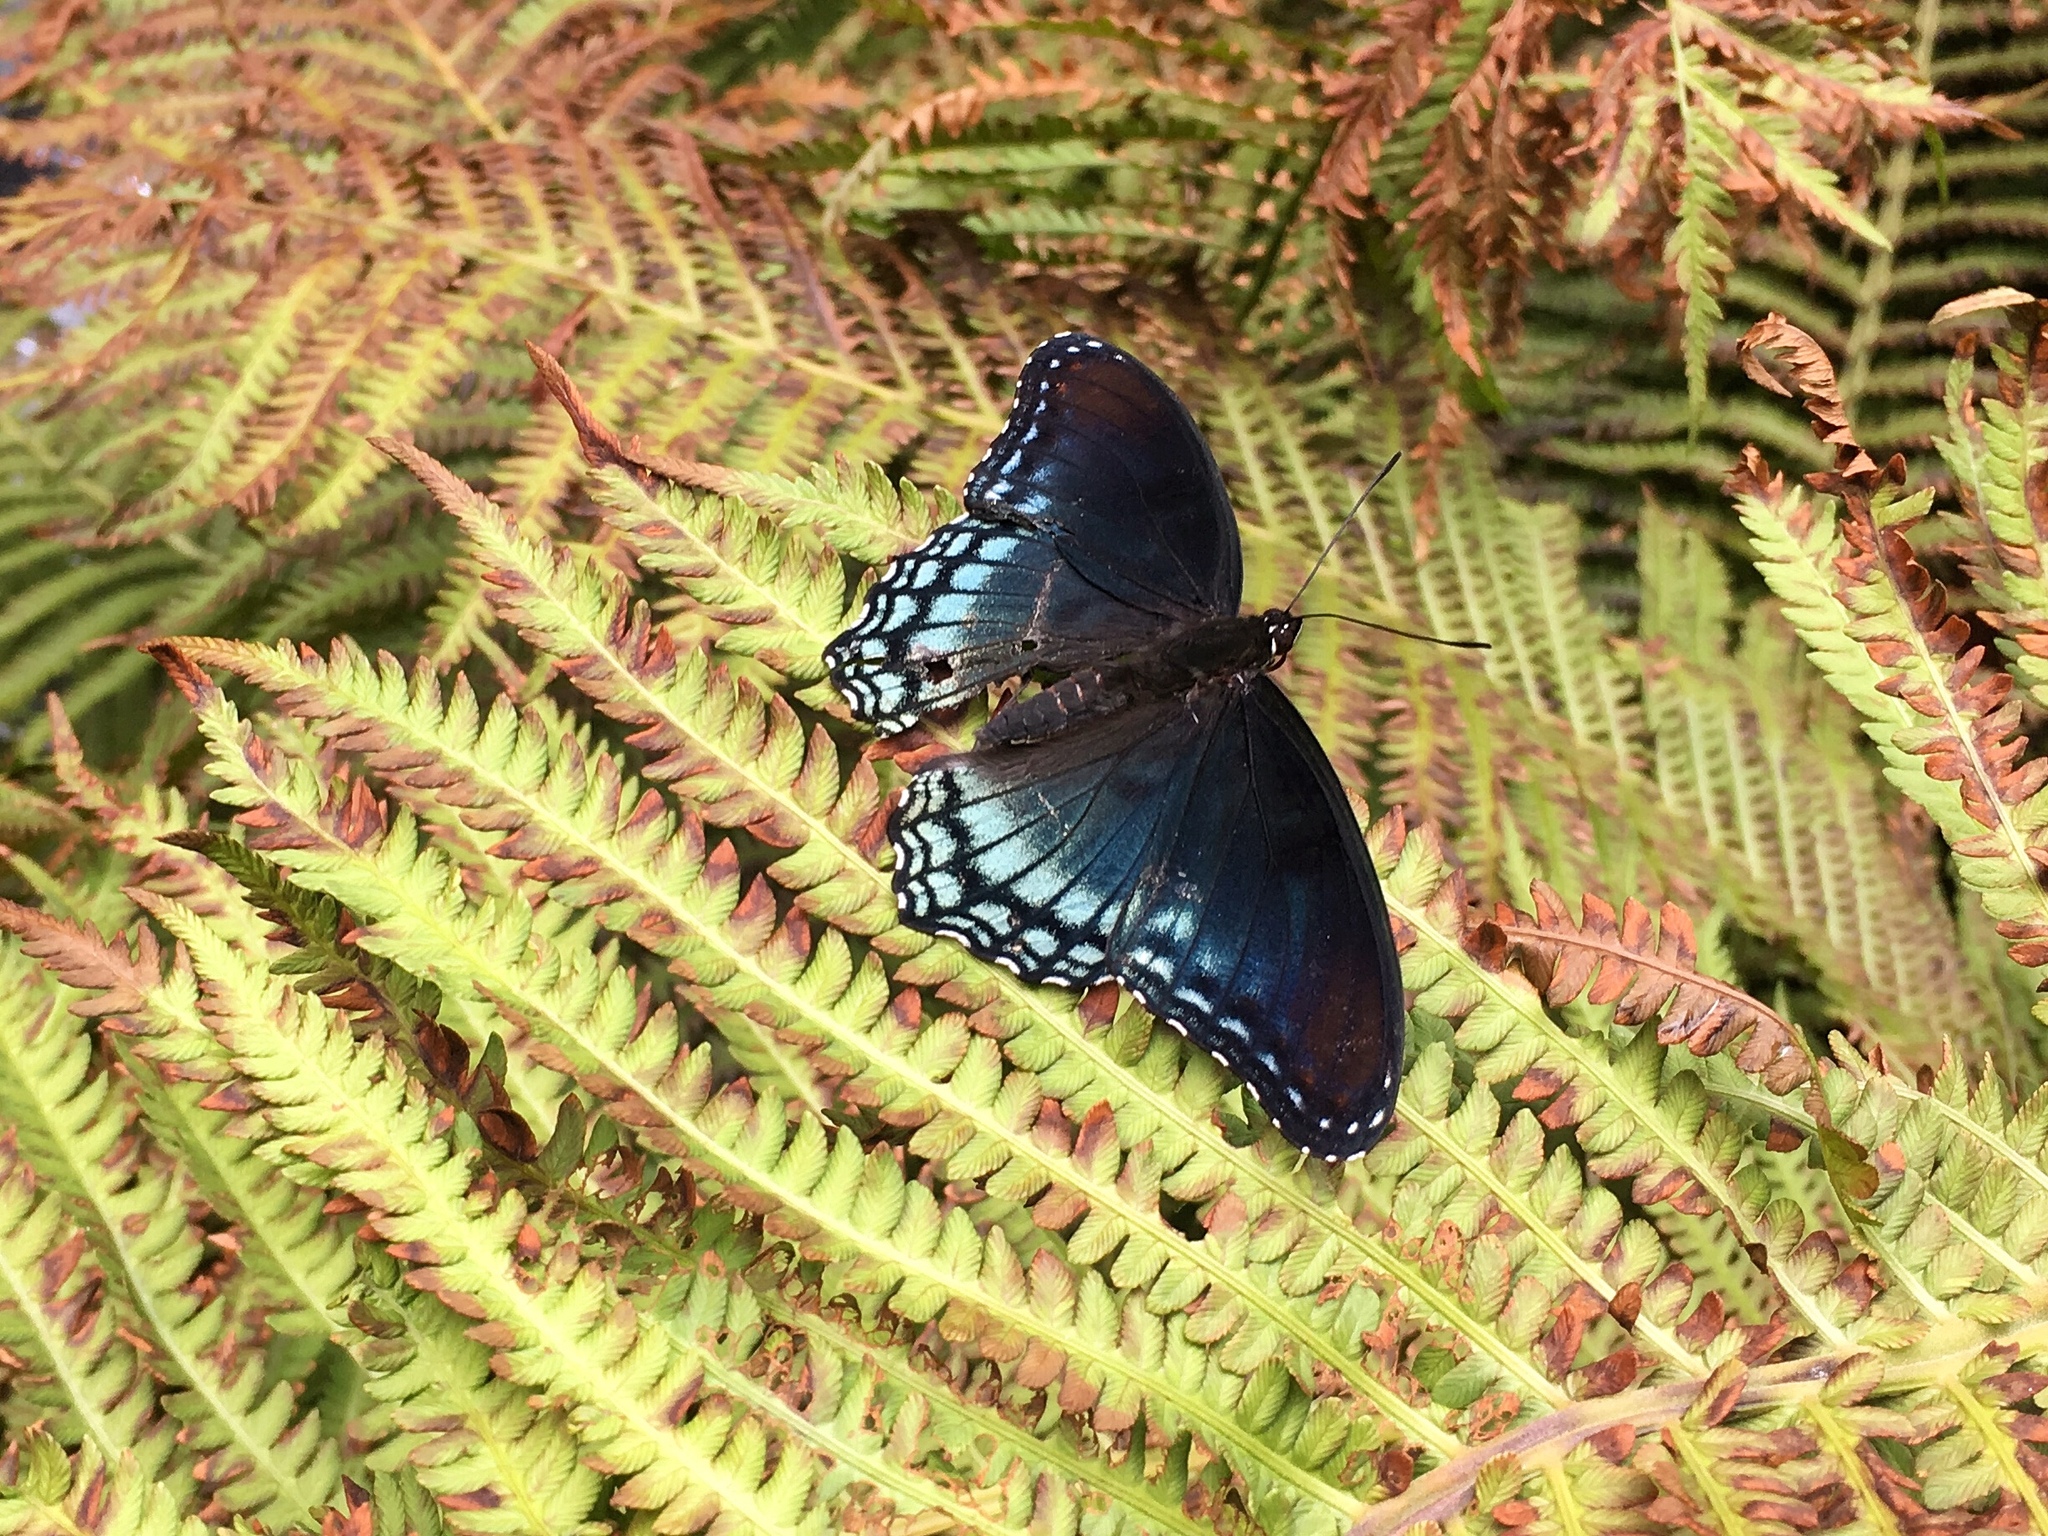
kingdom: Animalia
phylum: Arthropoda
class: Insecta
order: Lepidoptera
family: Nymphalidae
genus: Limenitis
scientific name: Limenitis arthemis
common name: Red-spotted admiral
